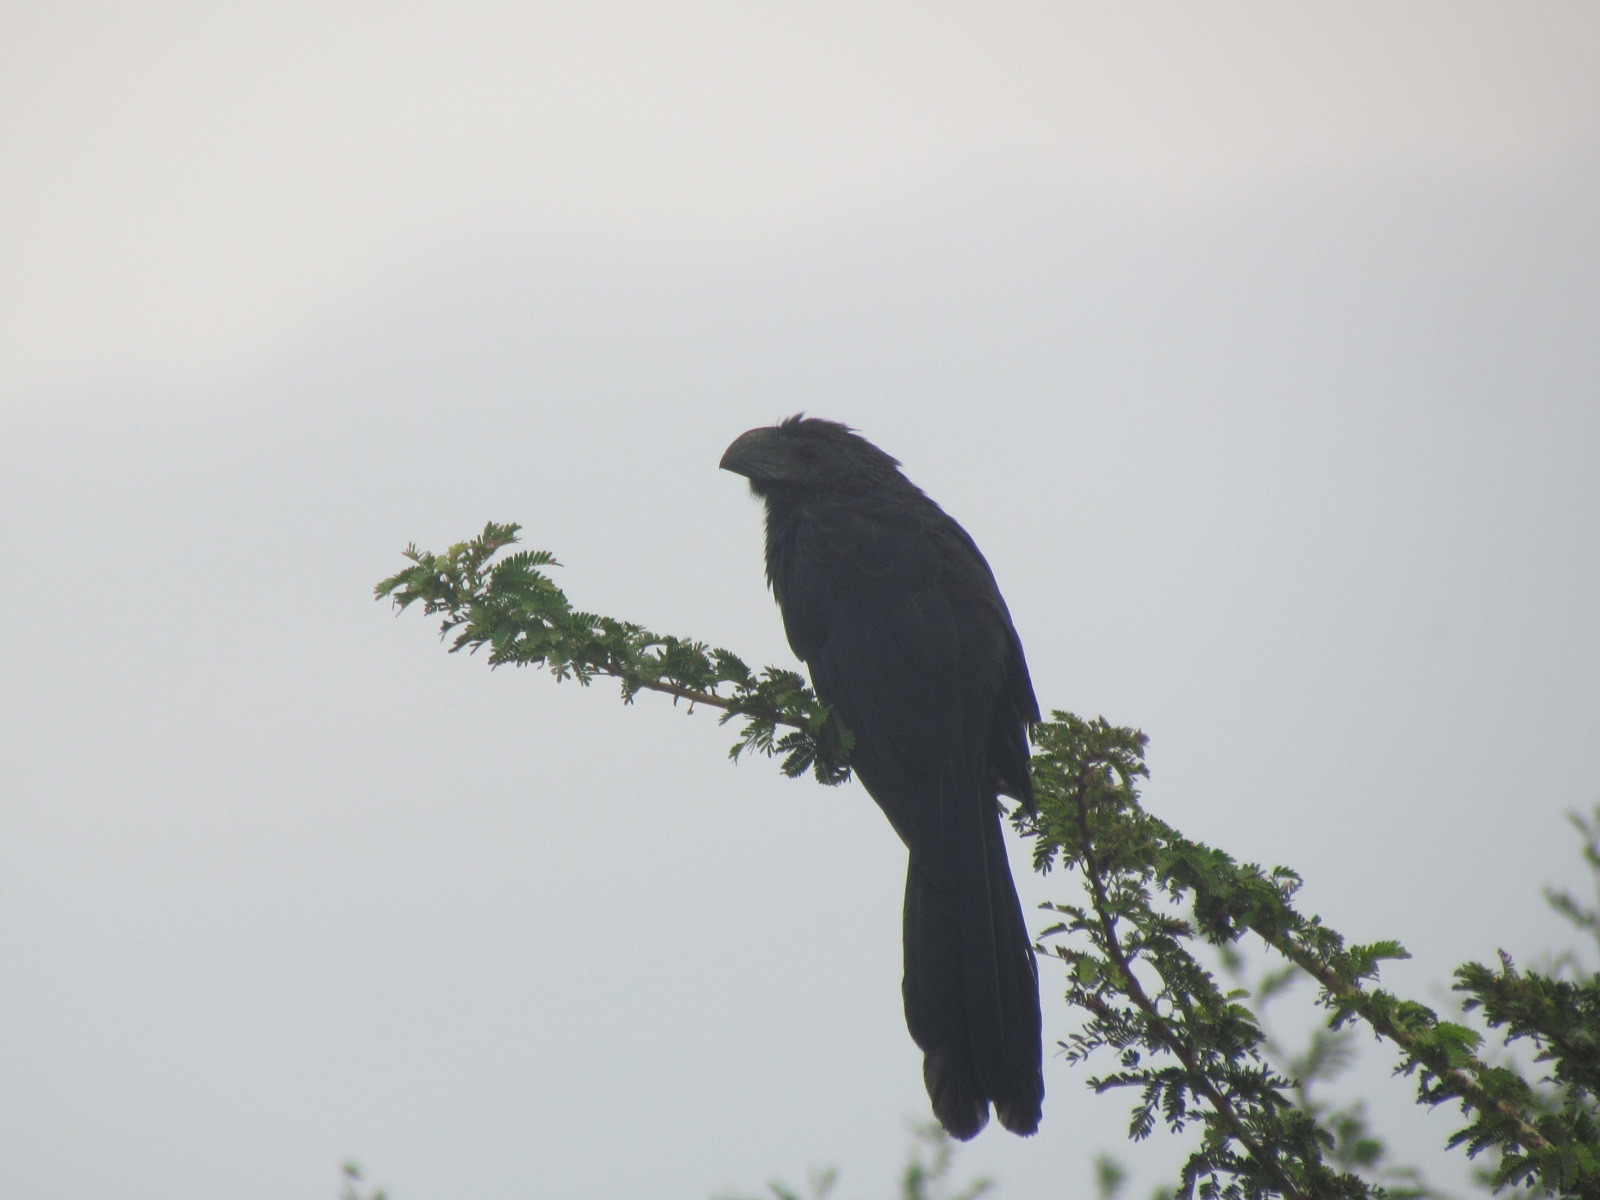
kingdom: Animalia
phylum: Chordata
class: Aves
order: Cuculiformes
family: Cuculidae
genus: Crotophaga
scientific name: Crotophaga sulcirostris
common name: Groove-billed ani
